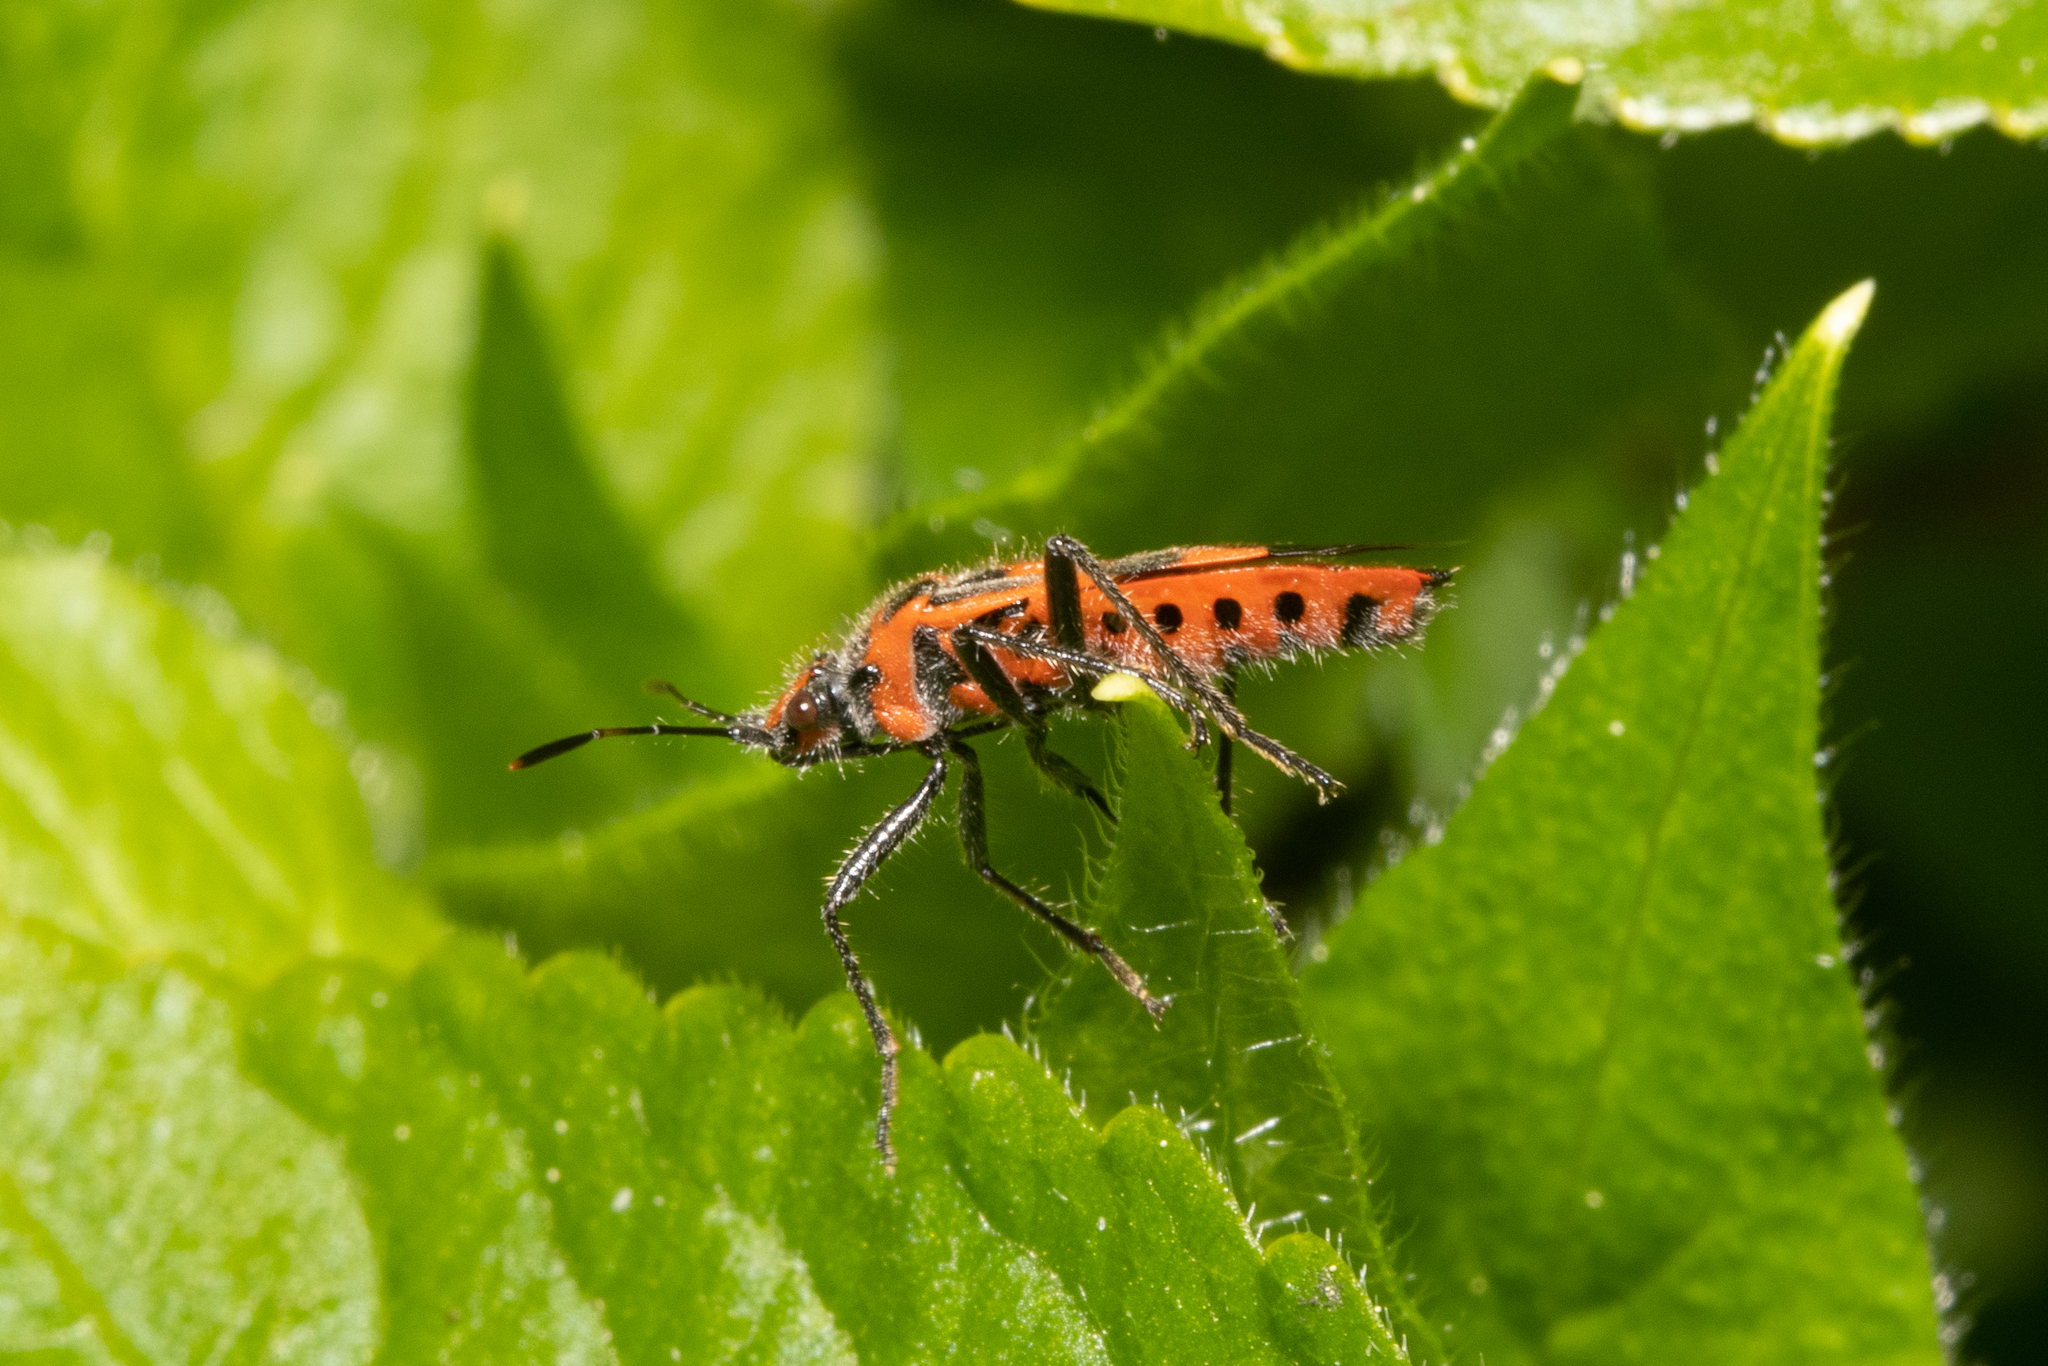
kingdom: Animalia
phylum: Arthropoda
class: Insecta
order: Hemiptera
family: Rhopalidae
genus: Corizus
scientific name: Corizus hyoscyami
